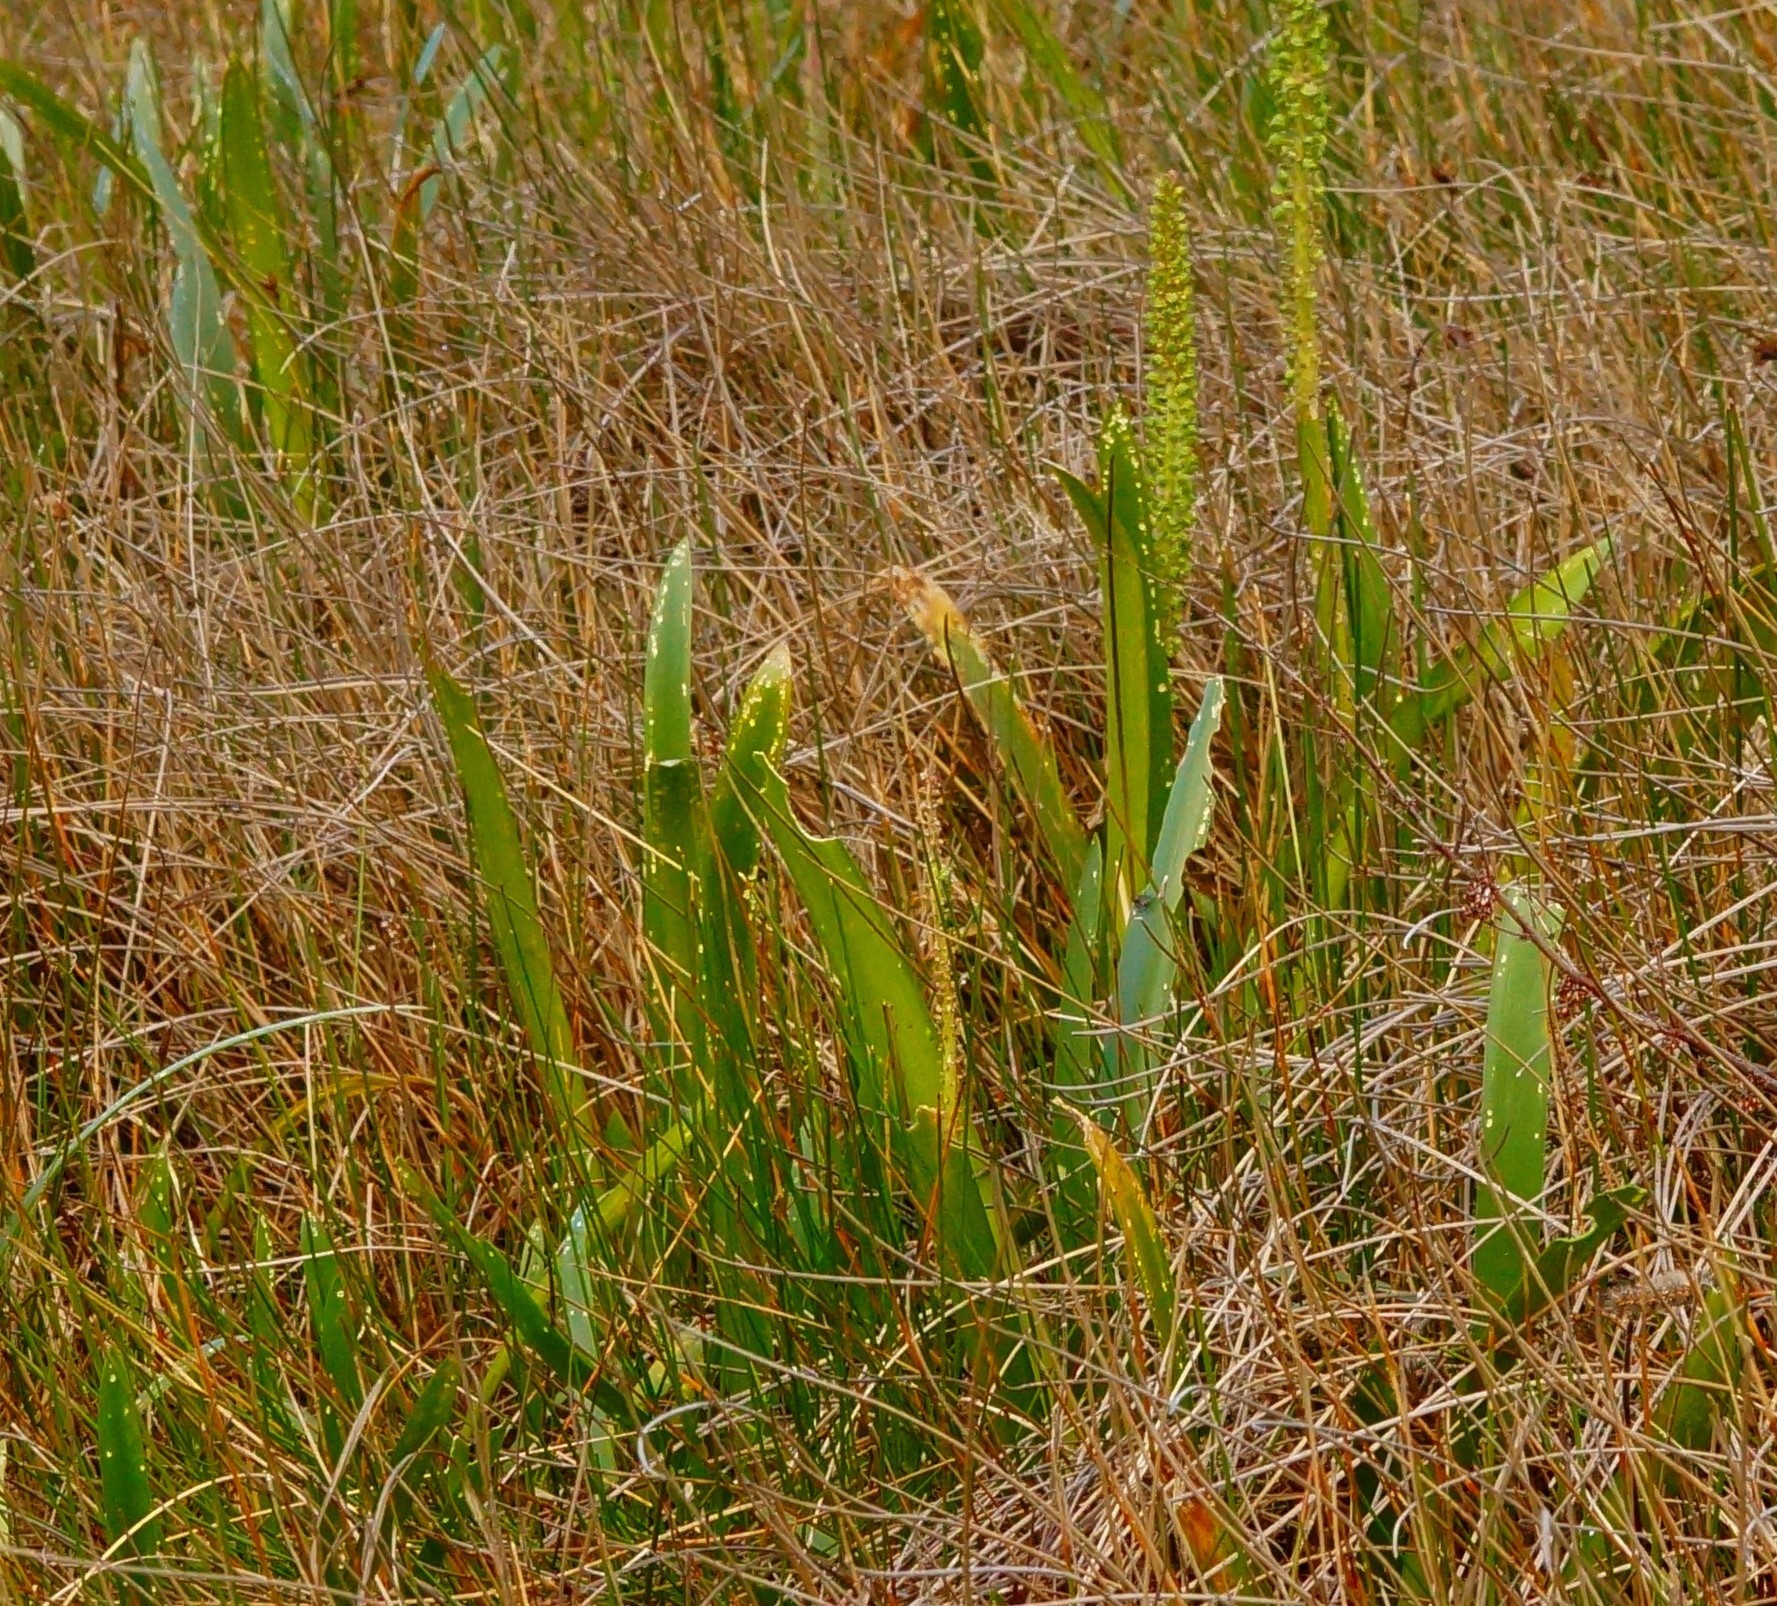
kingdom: Plantae
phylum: Tracheophyta
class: Liliopsida
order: Alismatales
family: Juncaginaceae
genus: Cycnogeton
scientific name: Cycnogeton procerum
